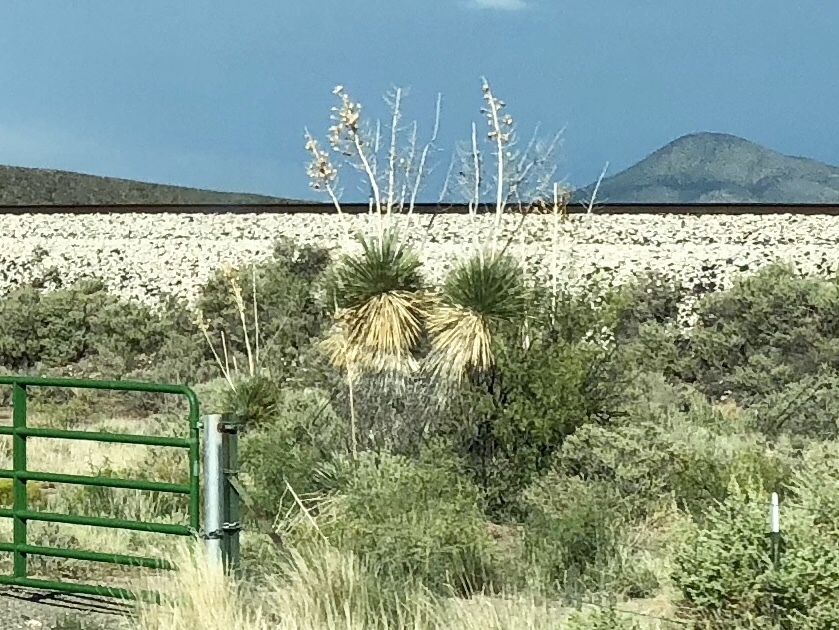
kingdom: Plantae
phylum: Tracheophyta
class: Liliopsida
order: Asparagales
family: Asparagaceae
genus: Yucca
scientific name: Yucca elata
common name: Palmella
